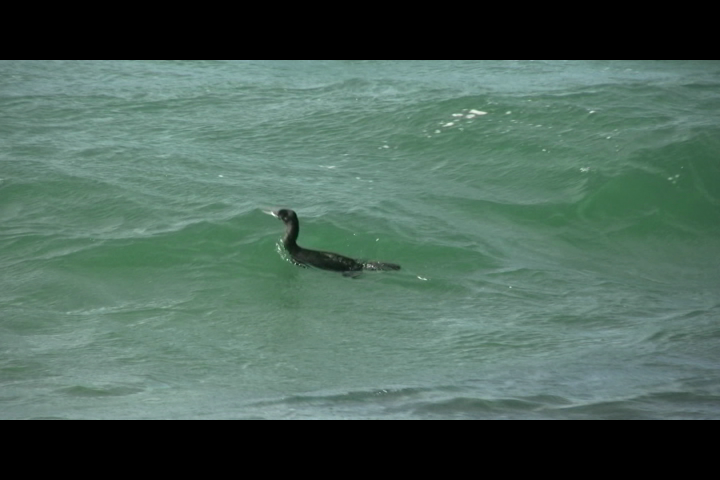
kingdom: Animalia
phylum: Chordata
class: Aves
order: Suliformes
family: Phalacrocoracidae
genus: Phalacrocorax
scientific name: Phalacrocorax sulcirostris
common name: Little black cormorant
